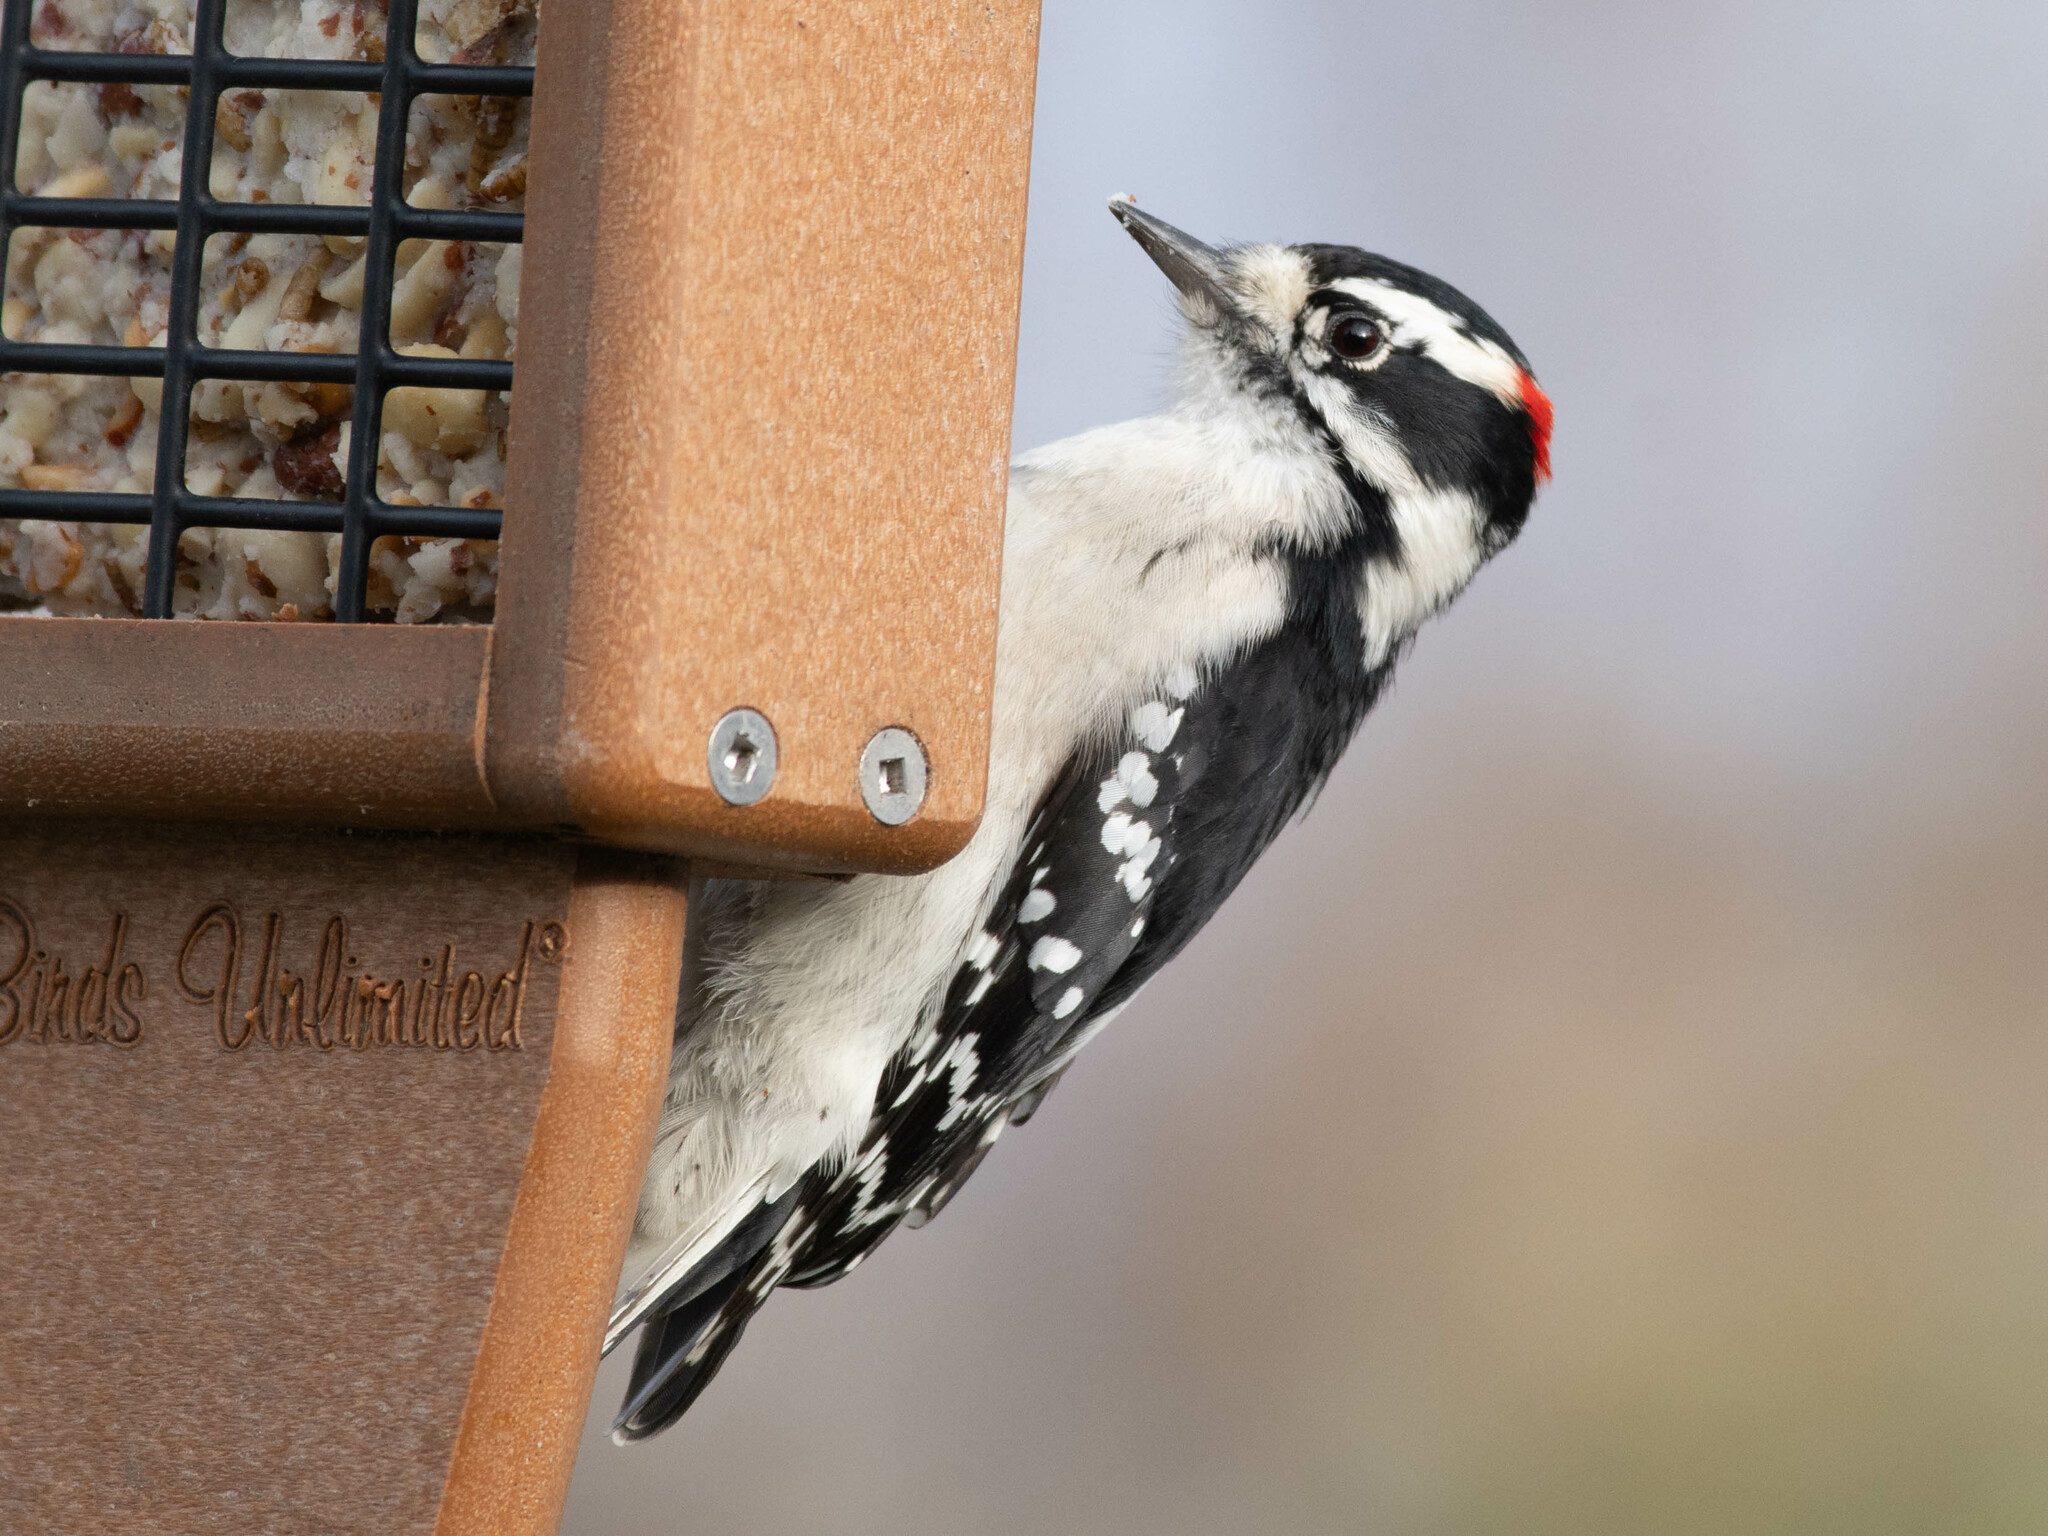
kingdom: Animalia
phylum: Chordata
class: Aves
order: Piciformes
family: Picidae
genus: Dryobates
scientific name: Dryobates pubescens
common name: Downy woodpecker
